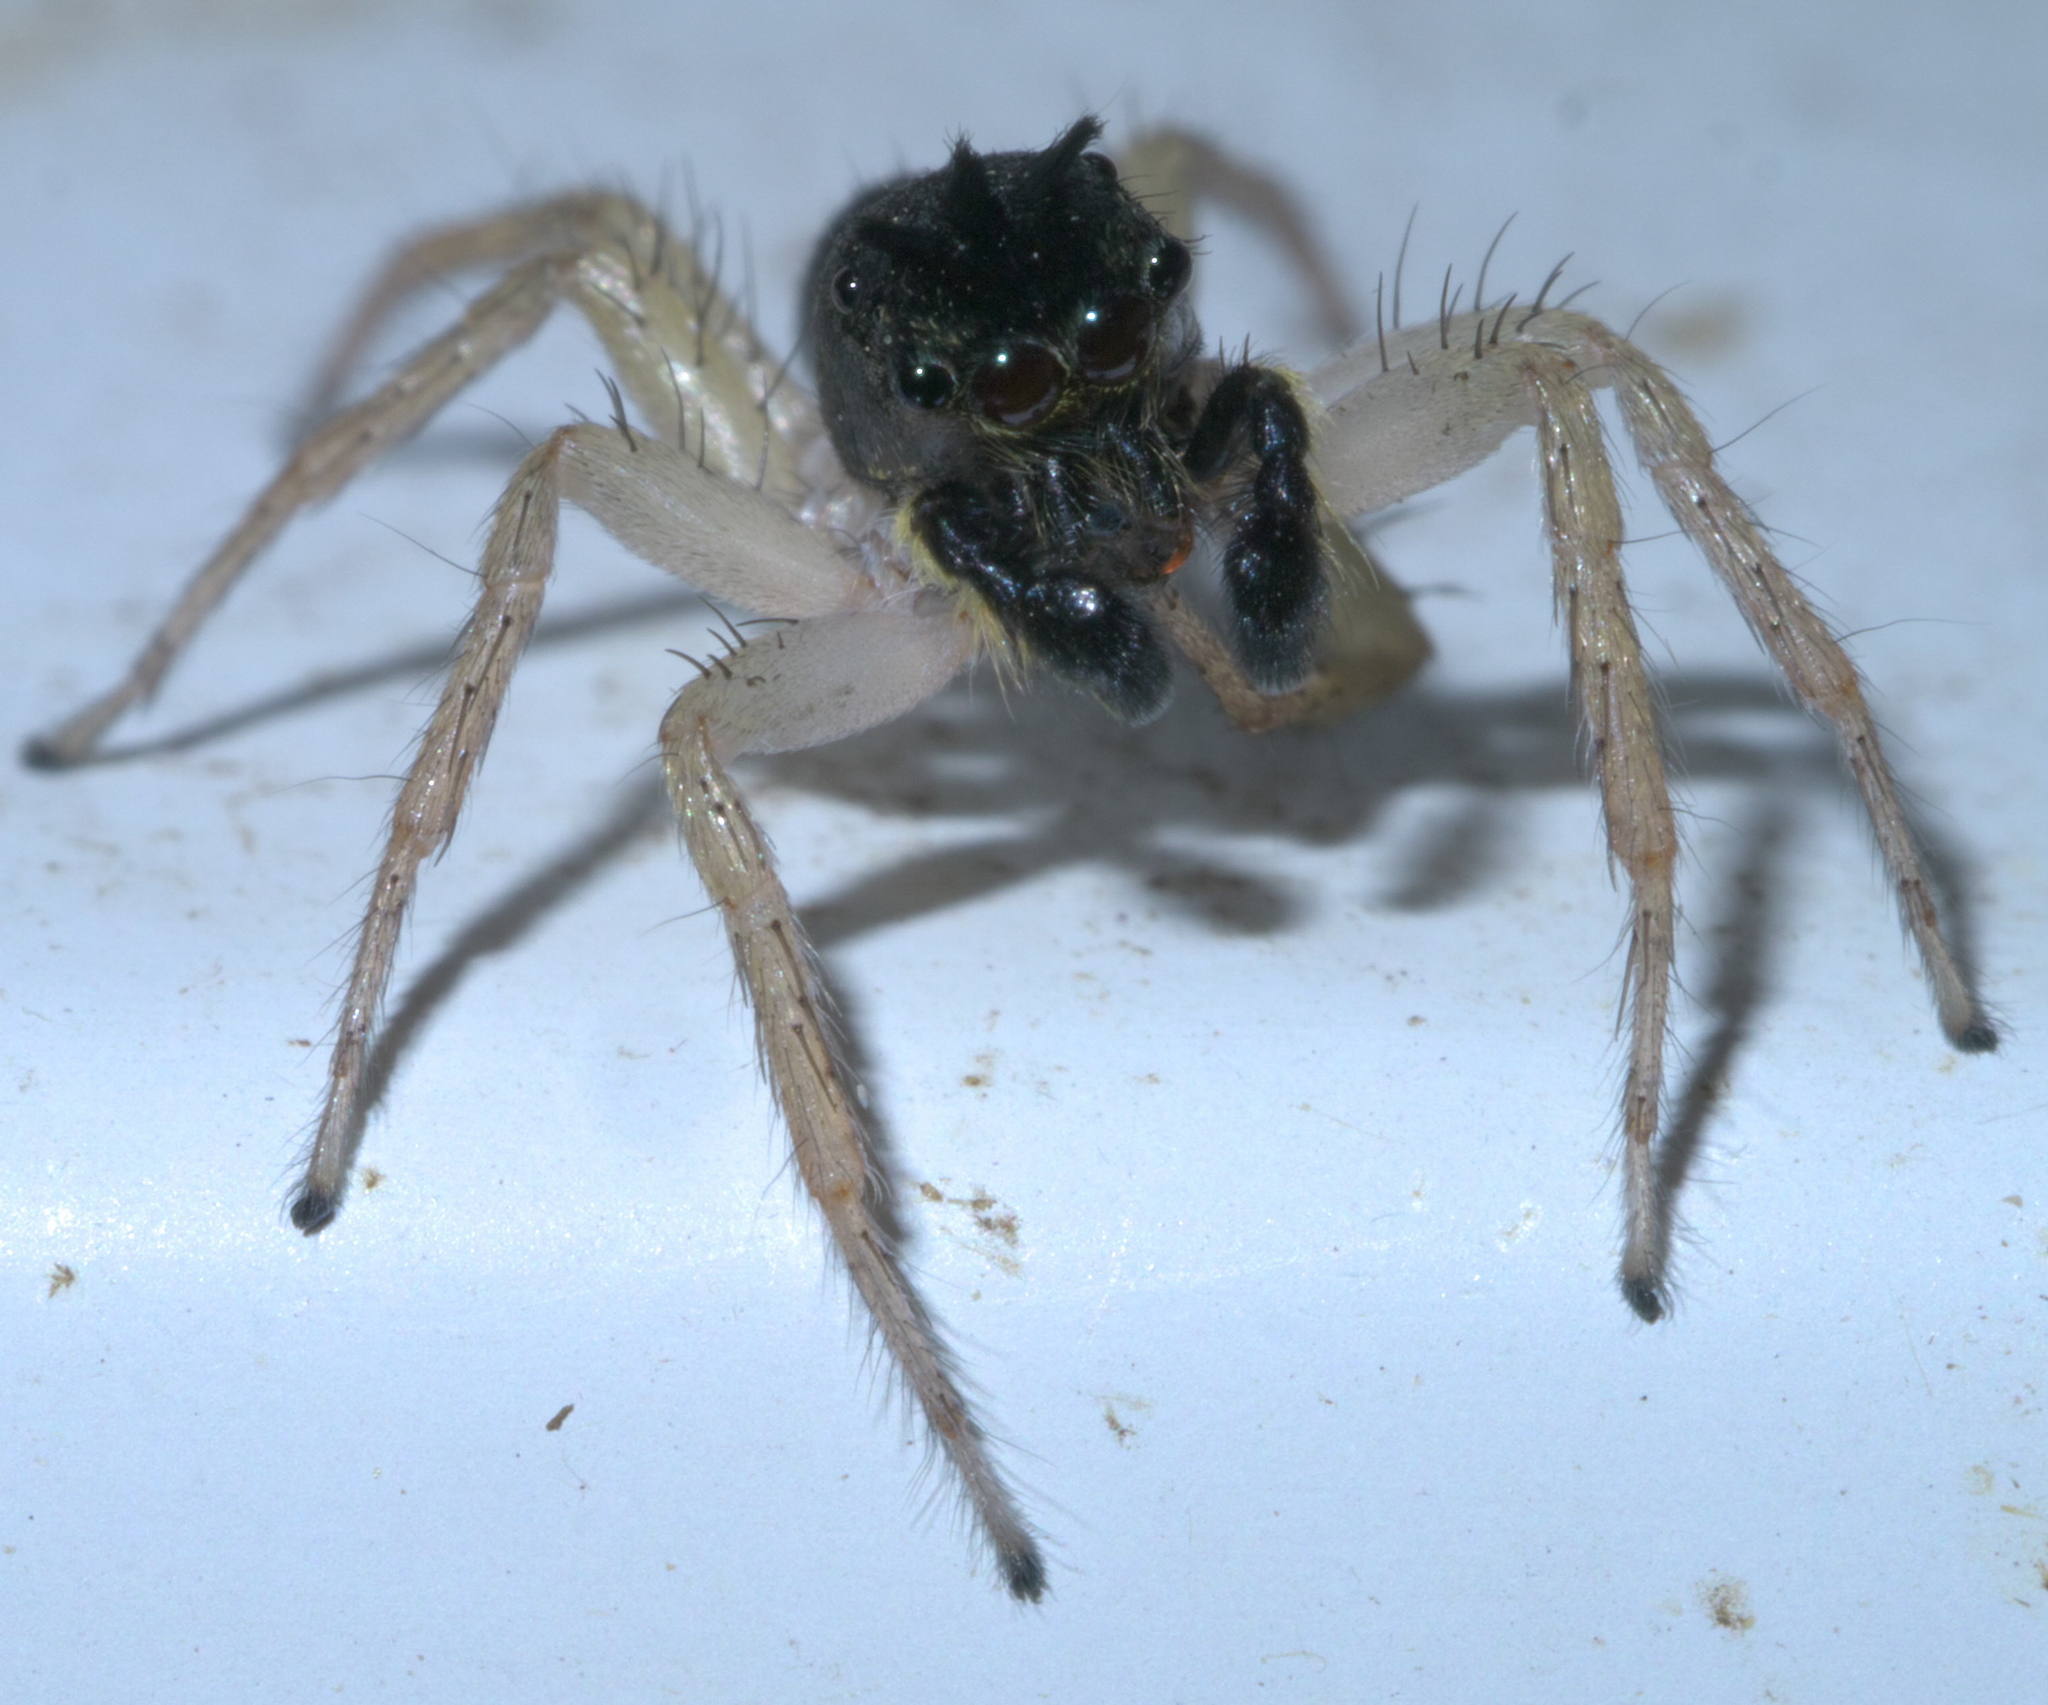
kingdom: Animalia
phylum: Arthropoda
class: Arachnida
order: Araneae
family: Salticidae
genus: Maevia
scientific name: Maevia inclemens
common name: Dimorphic jumper
